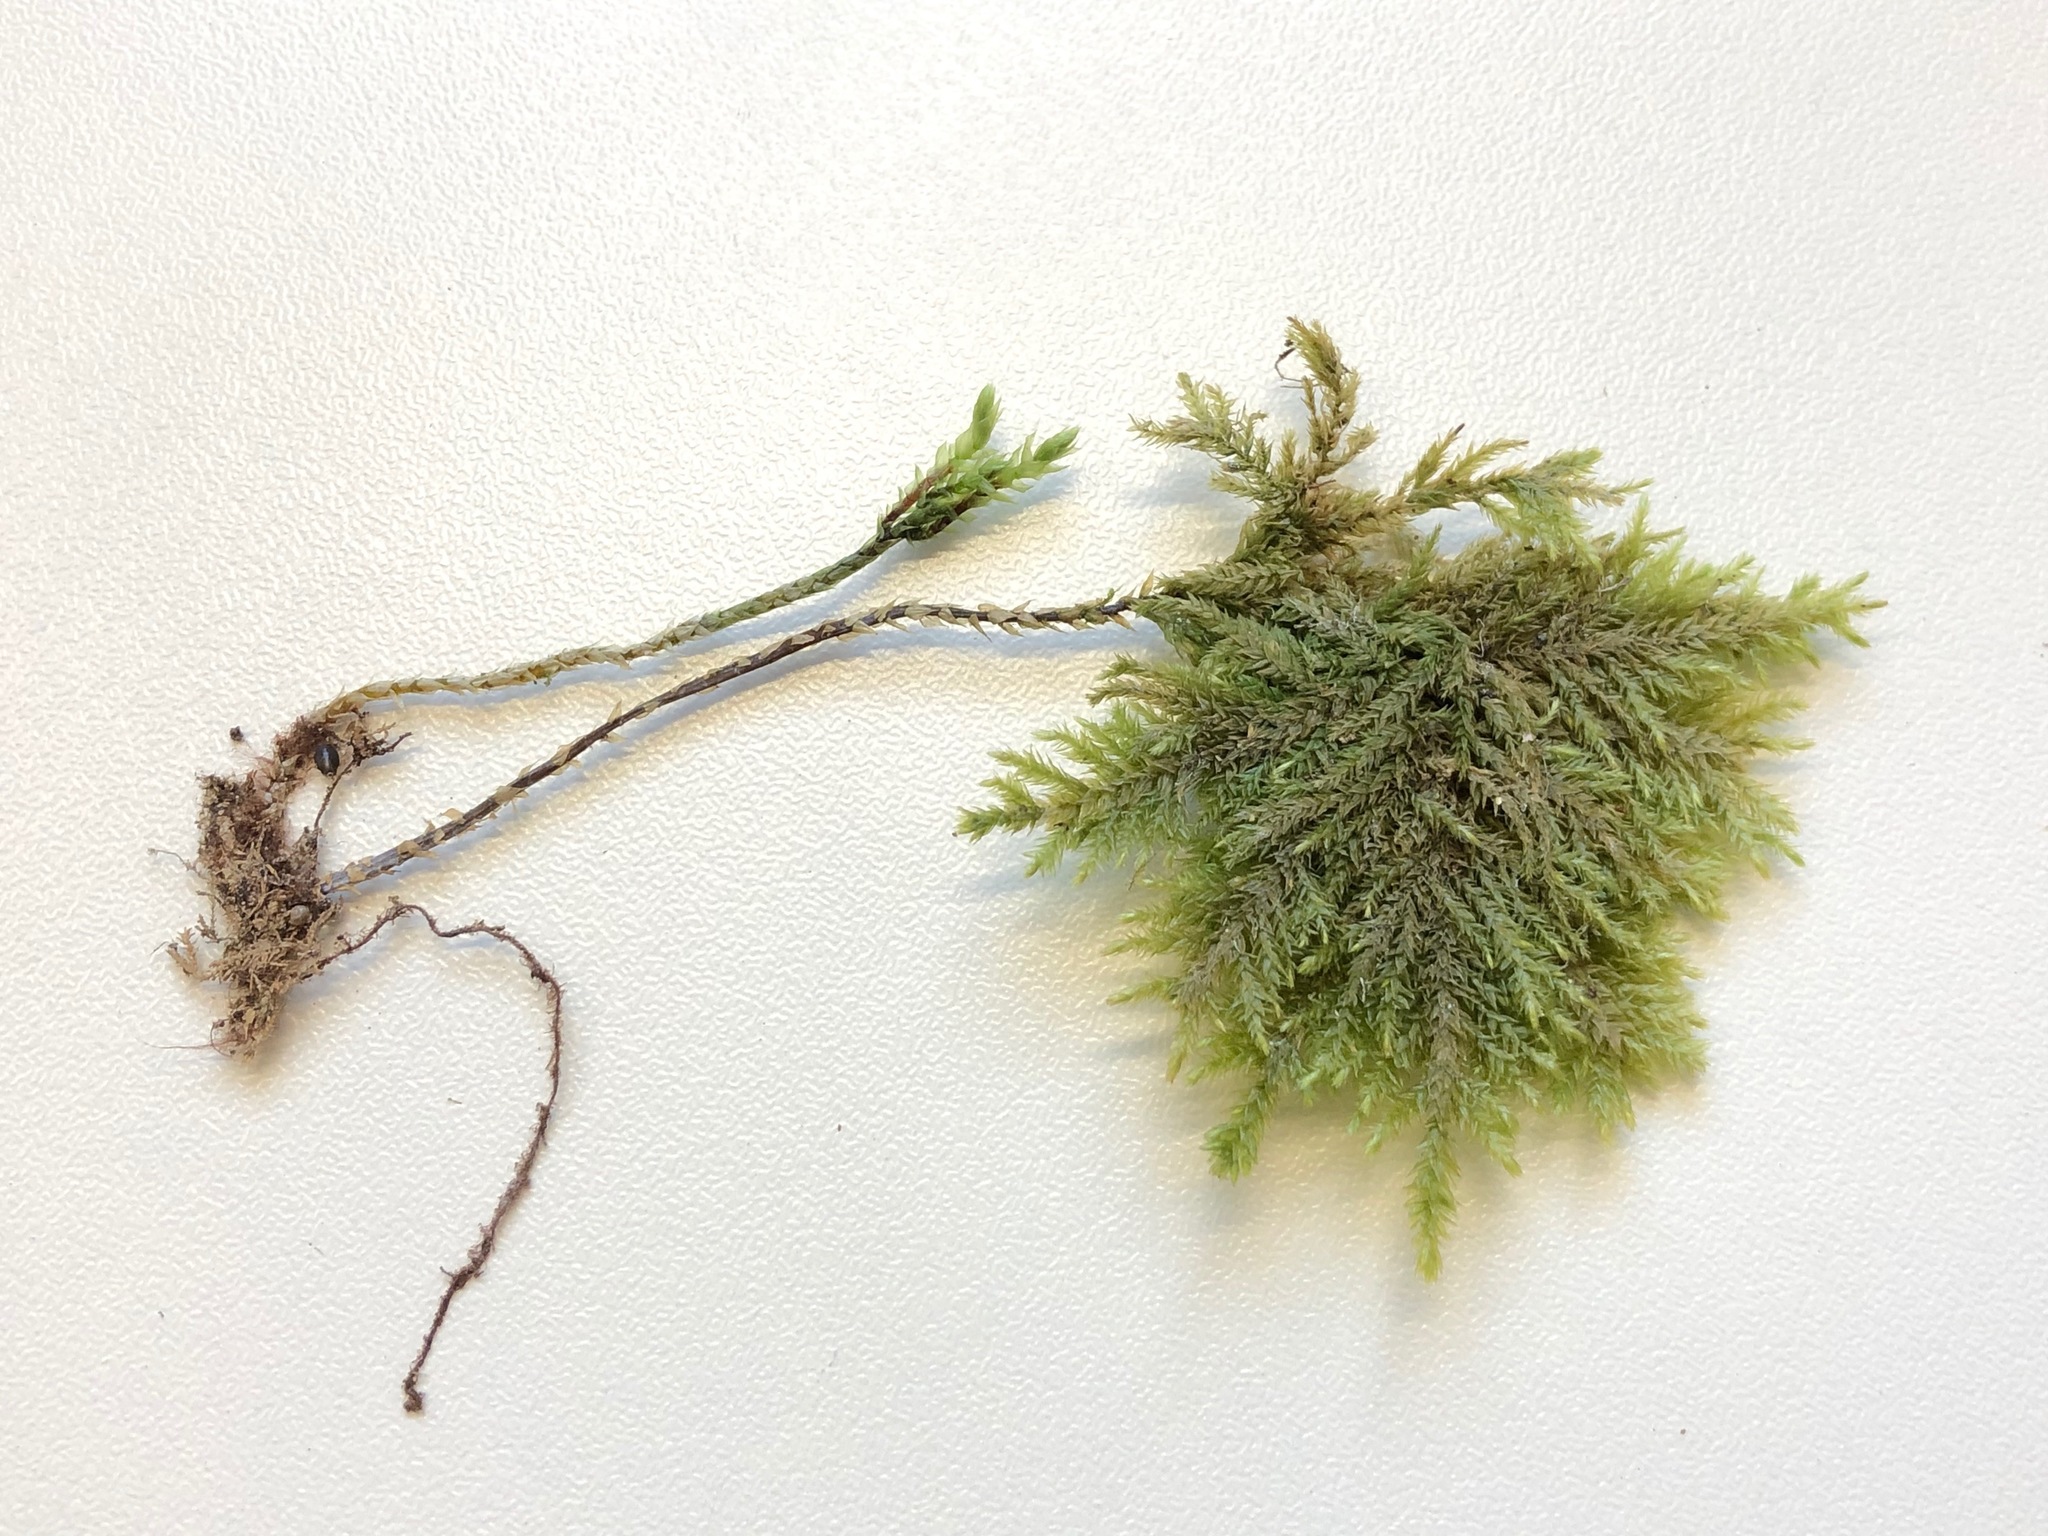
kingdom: Plantae
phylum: Bryophyta
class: Bryopsida
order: Hypnales
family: Neckeraceae
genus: Thamnobryum
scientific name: Thamnobryum alopecurum
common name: Fox-tail feather-moss
